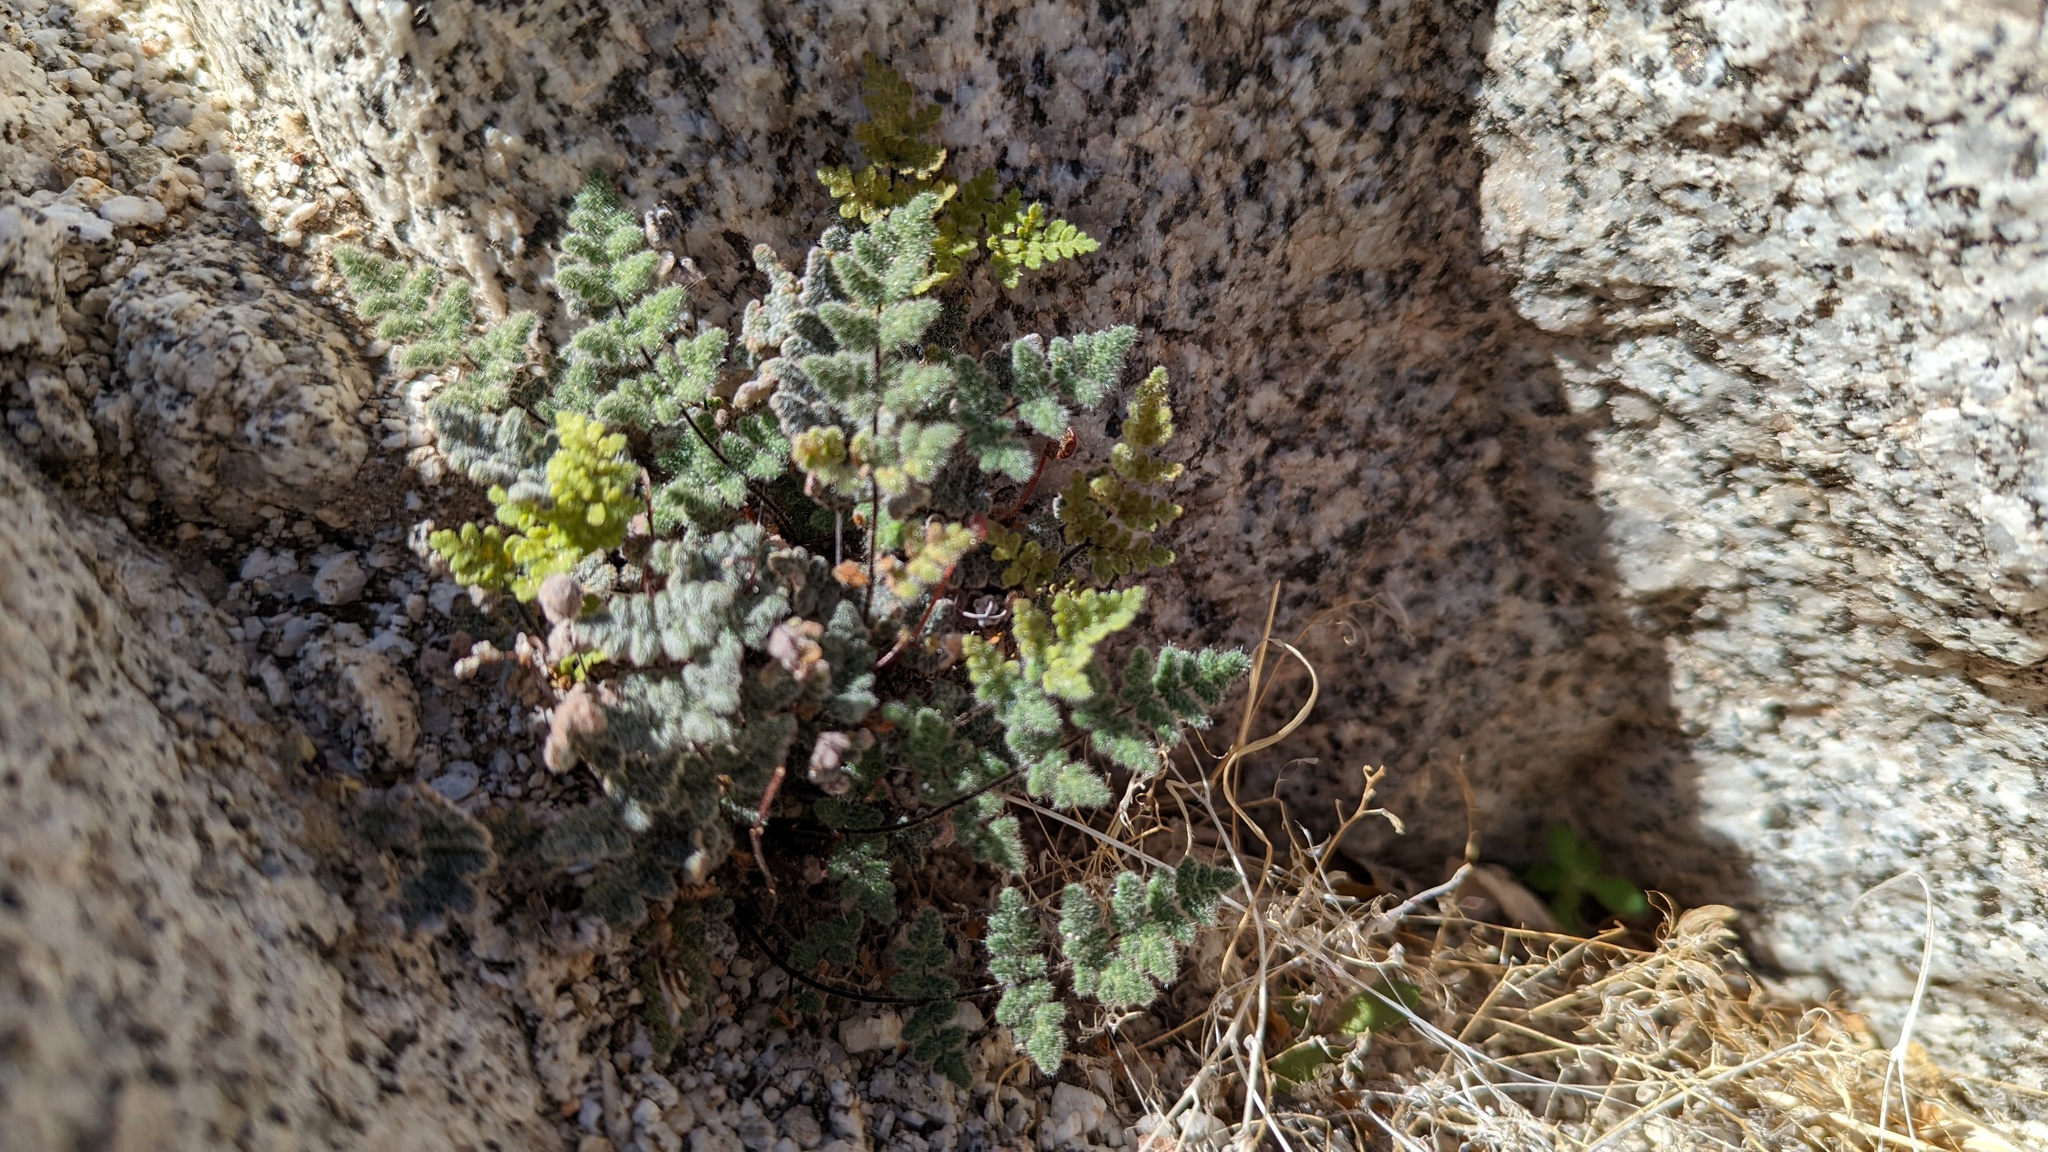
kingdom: Plantae
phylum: Tracheophyta
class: Polypodiopsida
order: Polypodiales
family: Pteridaceae
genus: Myriopteris
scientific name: Myriopteris parryi
